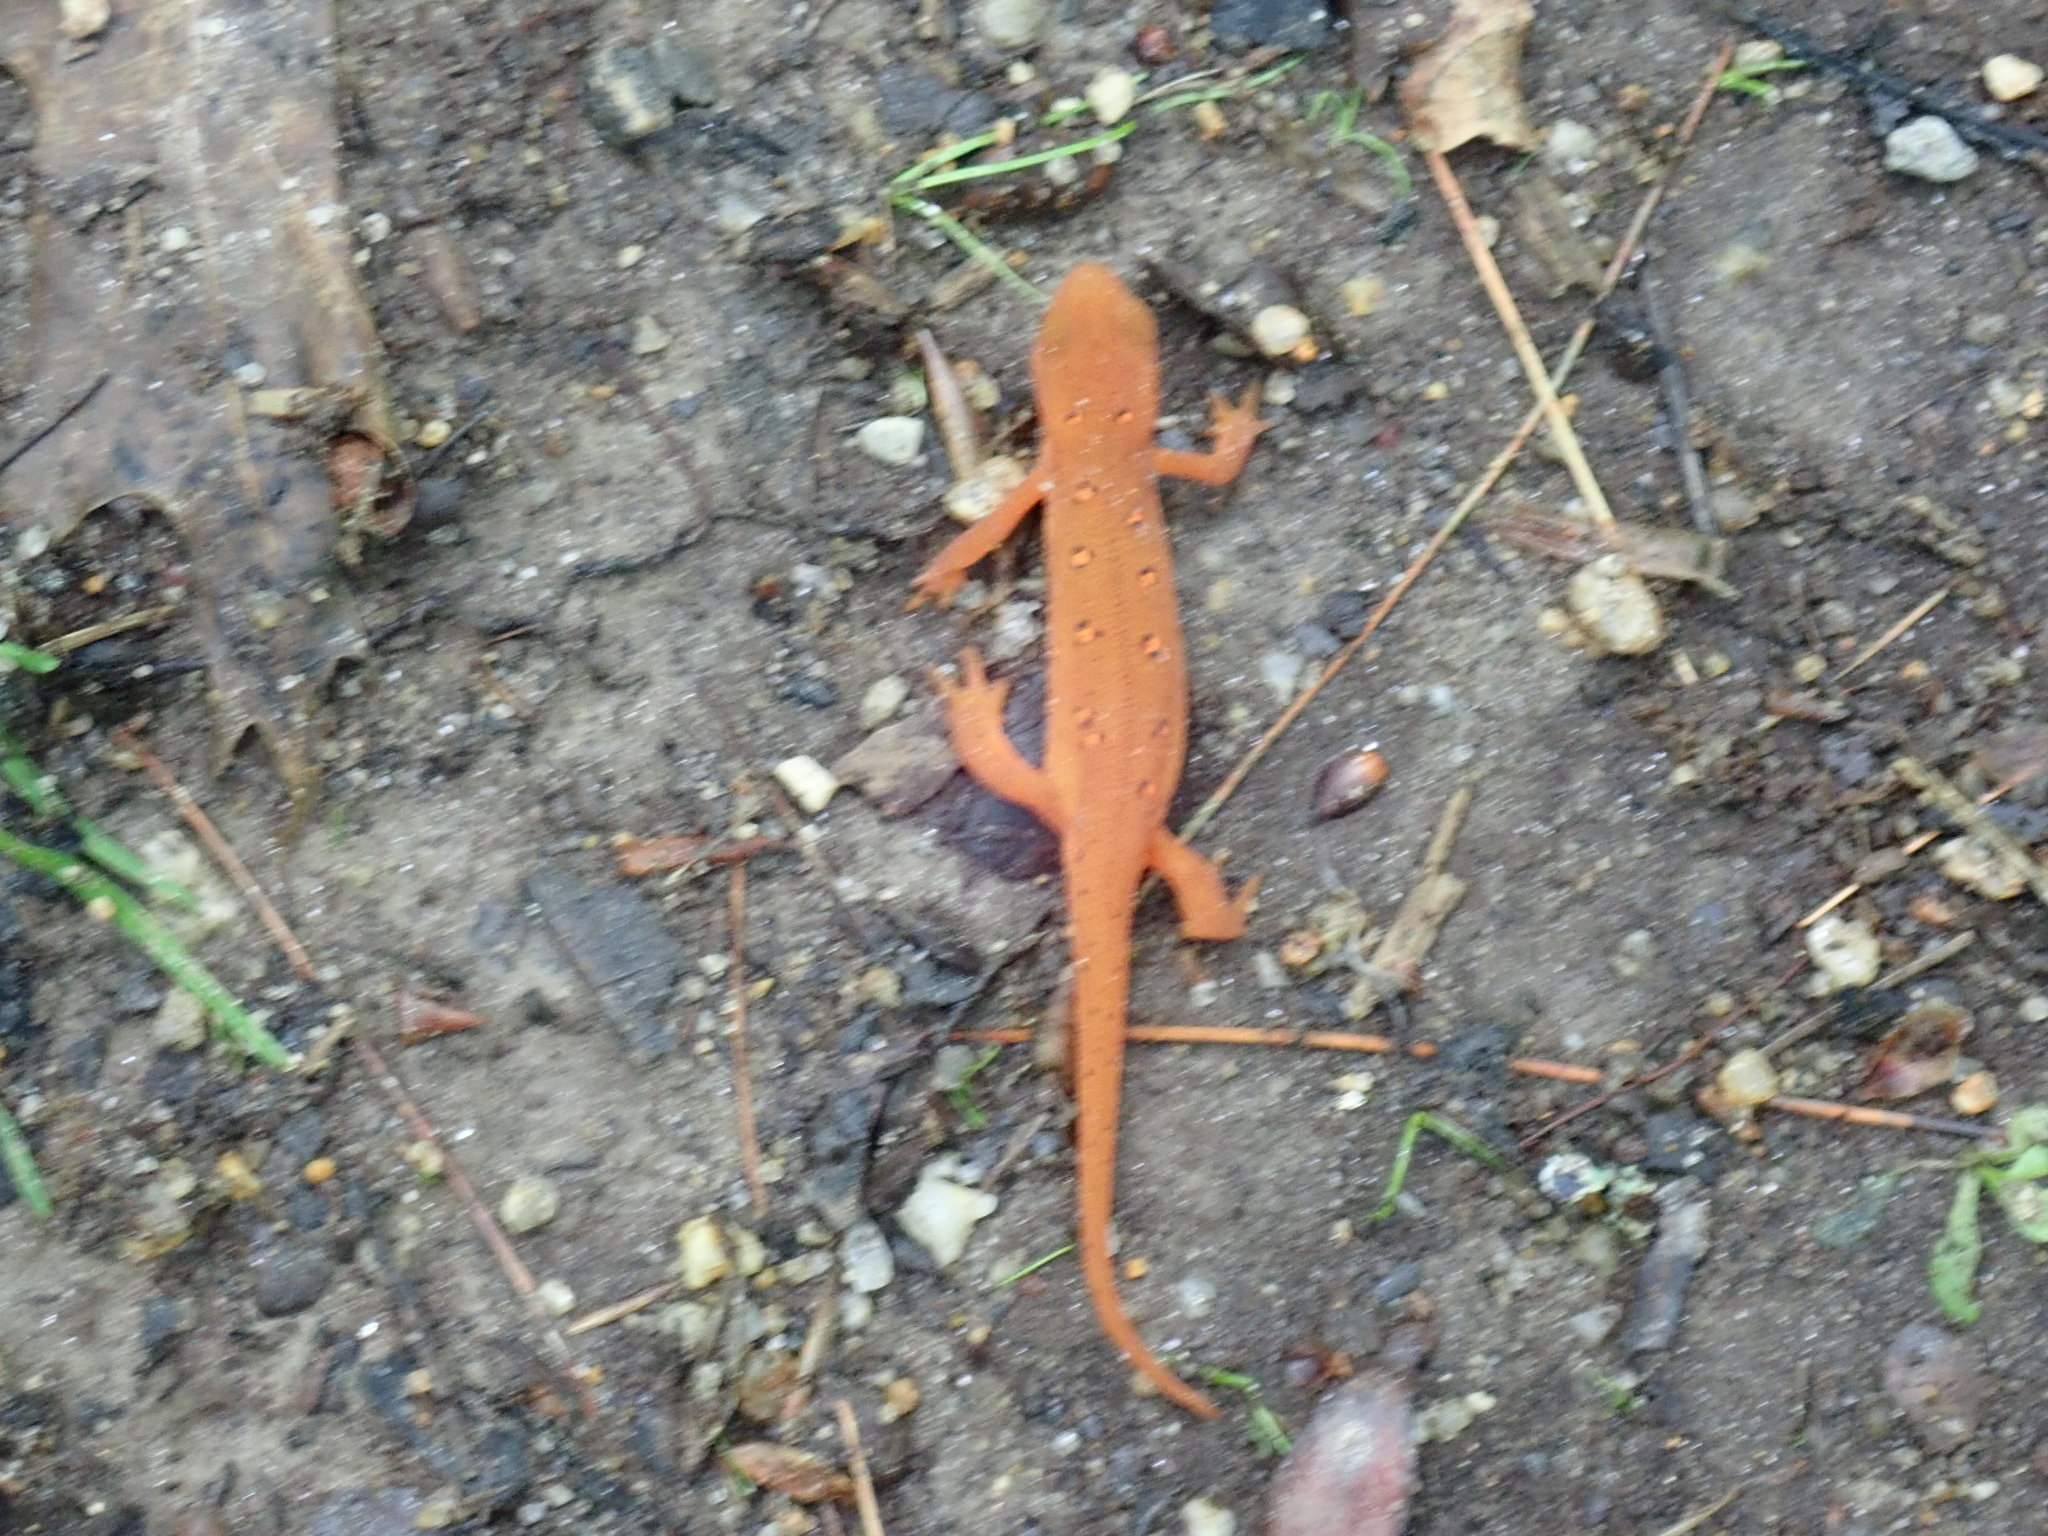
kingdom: Animalia
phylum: Chordata
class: Amphibia
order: Caudata
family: Salamandridae
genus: Notophthalmus
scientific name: Notophthalmus viridescens
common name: Eastern newt
